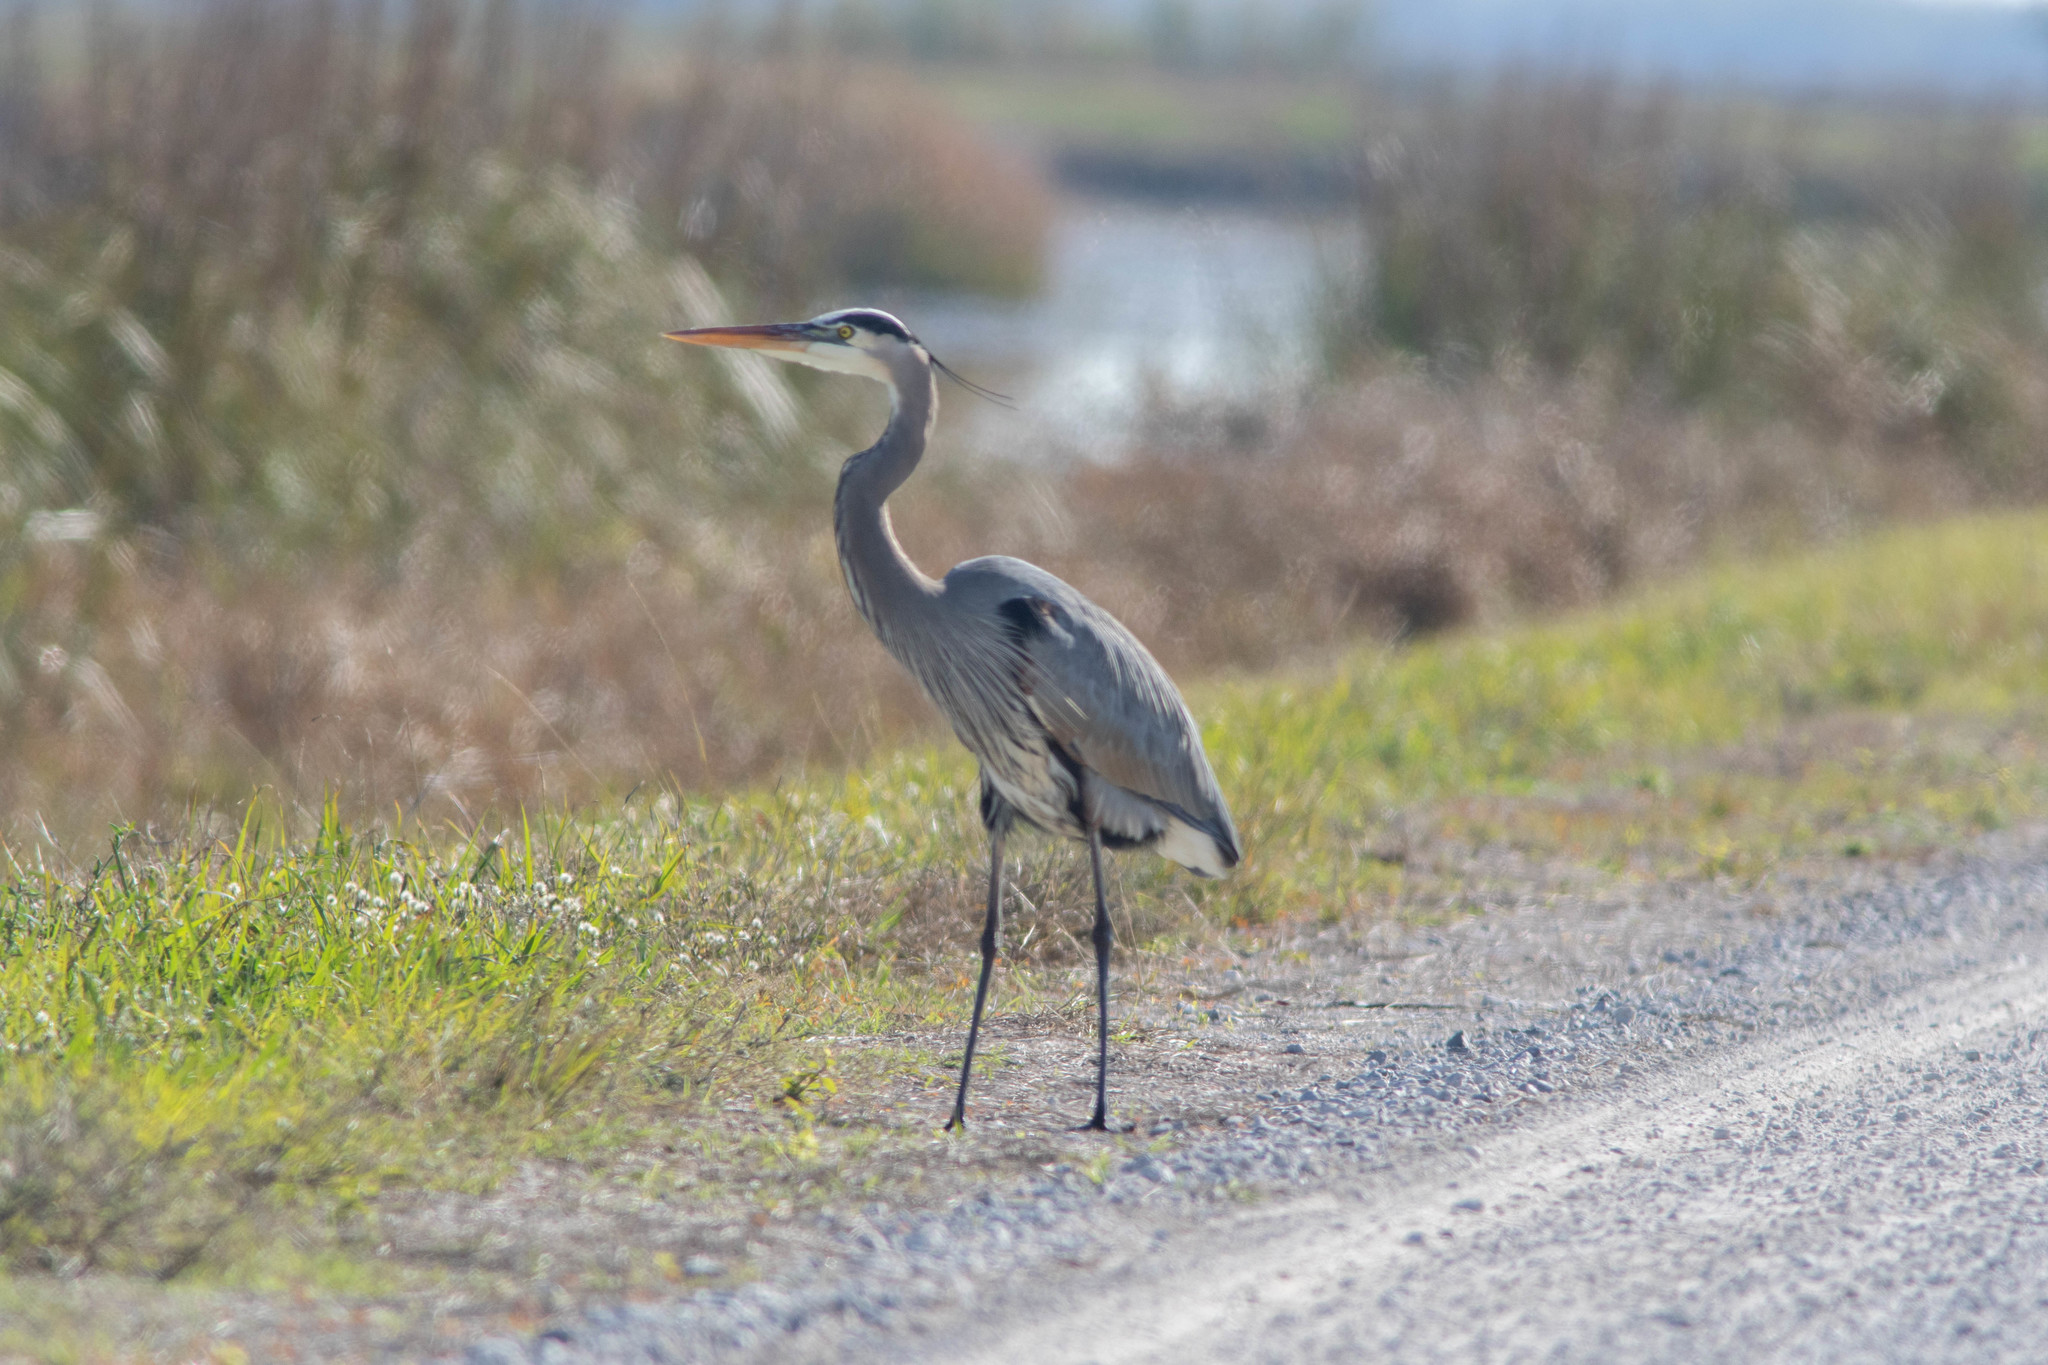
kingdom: Animalia
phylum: Chordata
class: Aves
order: Pelecaniformes
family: Ardeidae
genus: Ardea
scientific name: Ardea herodias
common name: Great blue heron
